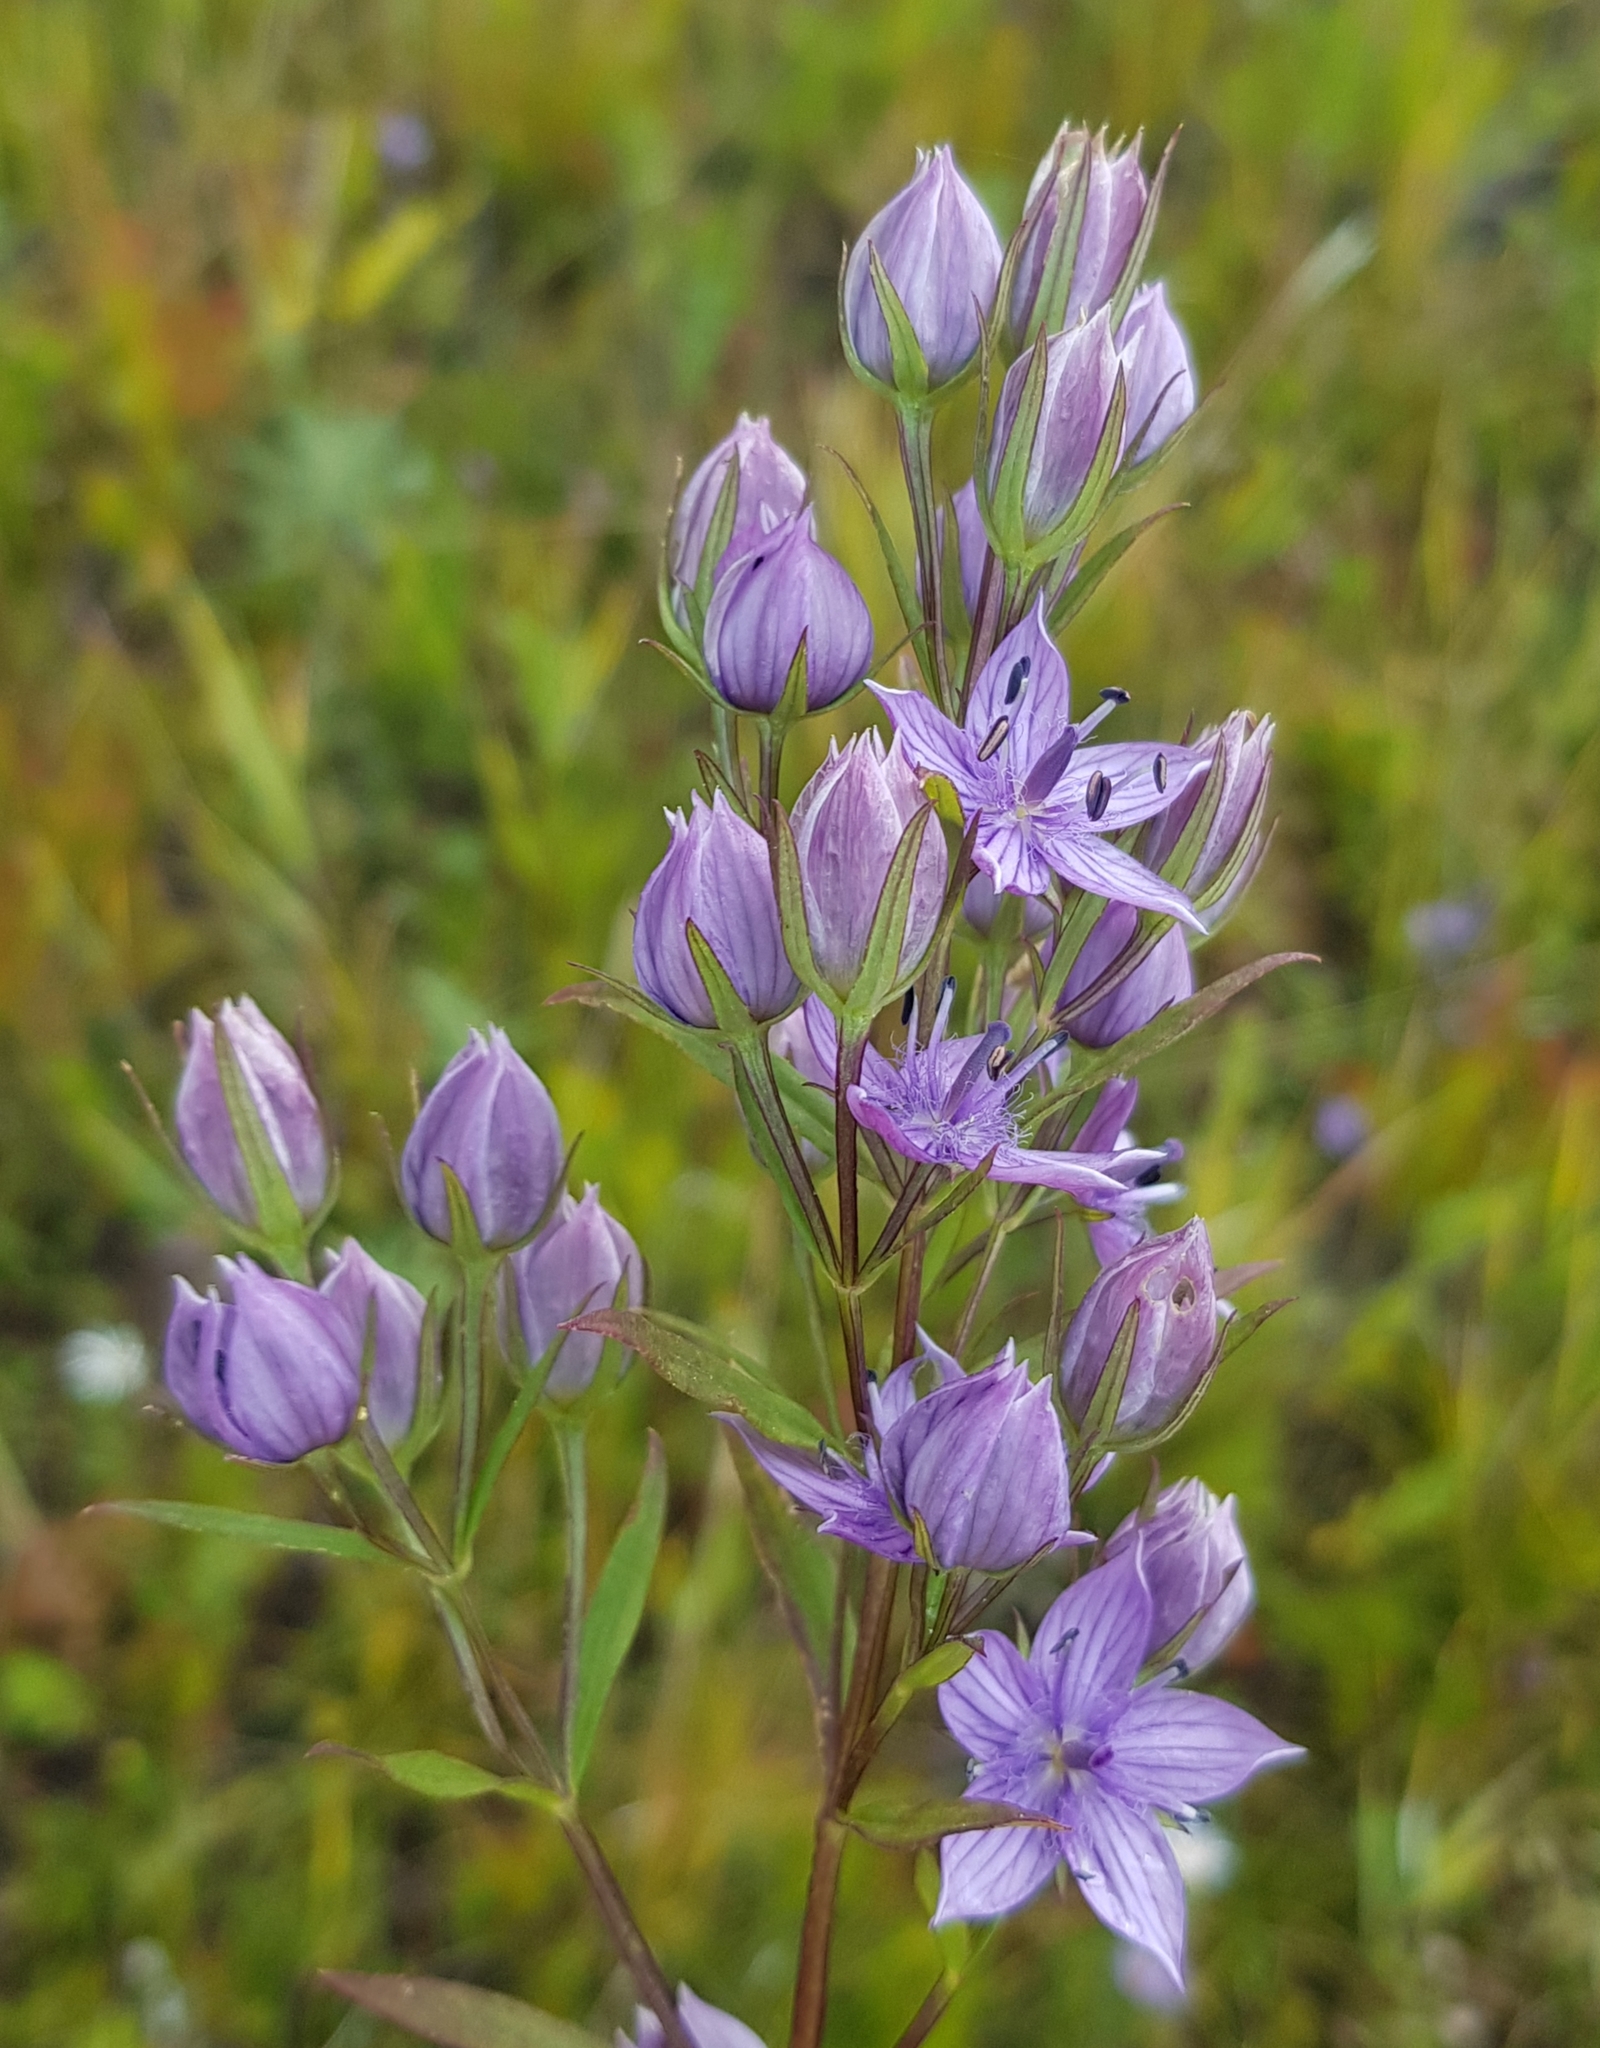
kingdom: Plantae
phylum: Tracheophyta
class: Magnoliopsida
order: Gentianales
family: Gentianaceae
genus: Lomatogonium
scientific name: Lomatogonium rotatum
